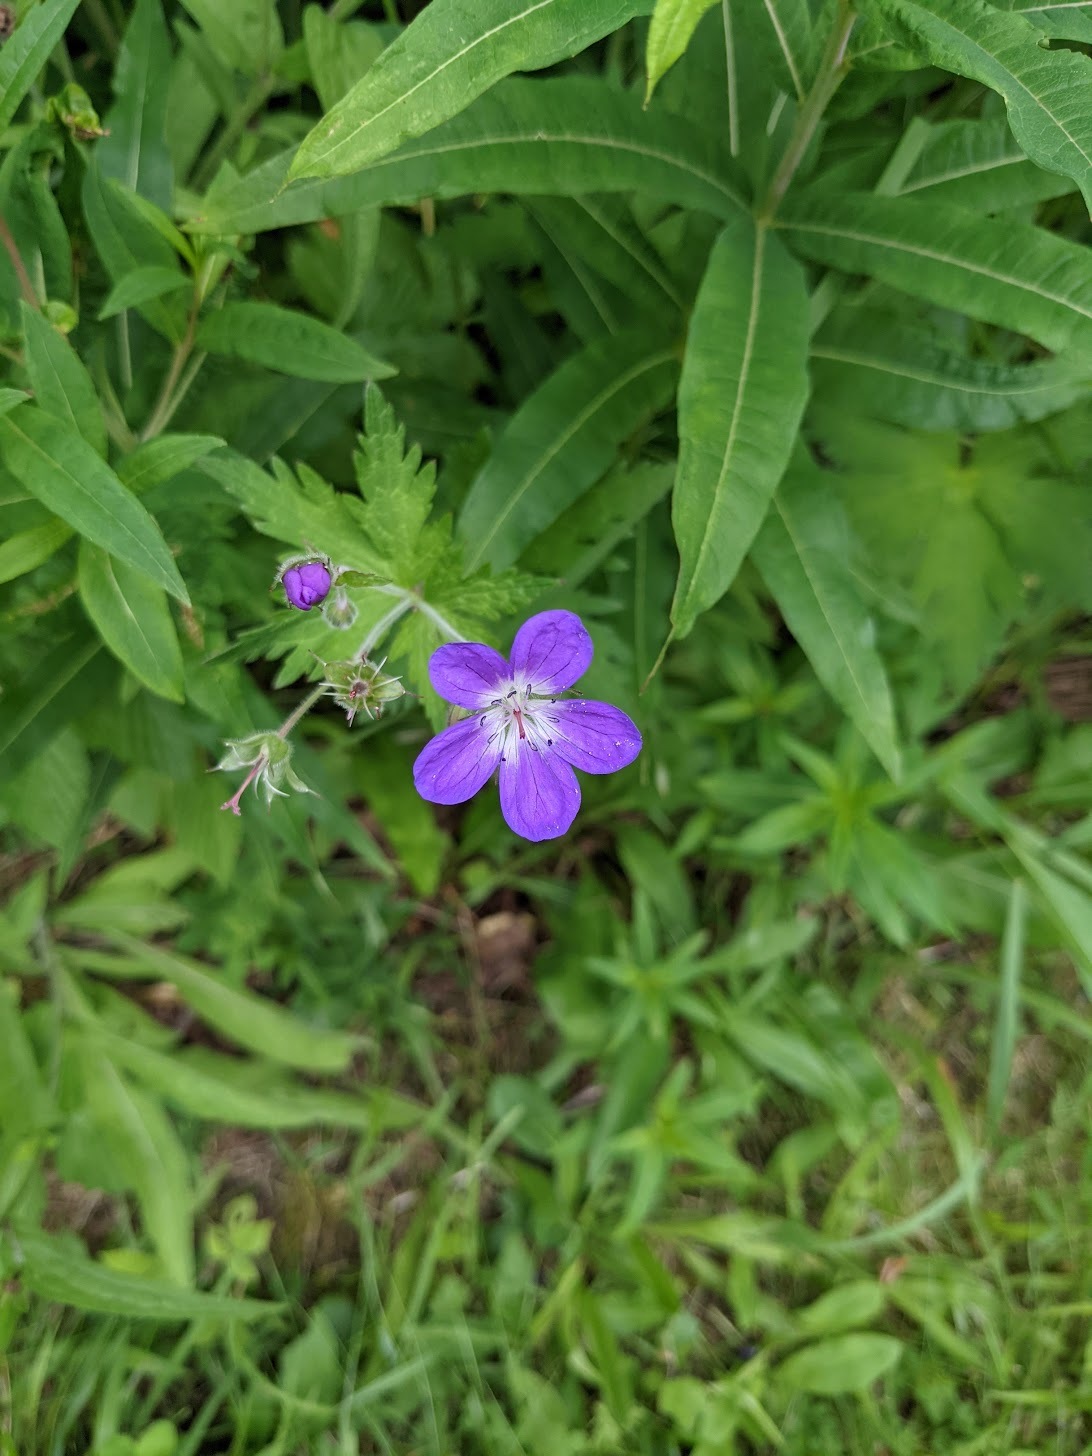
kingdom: Plantae
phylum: Tracheophyta
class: Magnoliopsida
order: Geraniales
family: Geraniaceae
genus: Geranium
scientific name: Geranium sylvaticum
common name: Wood crane's-bill
